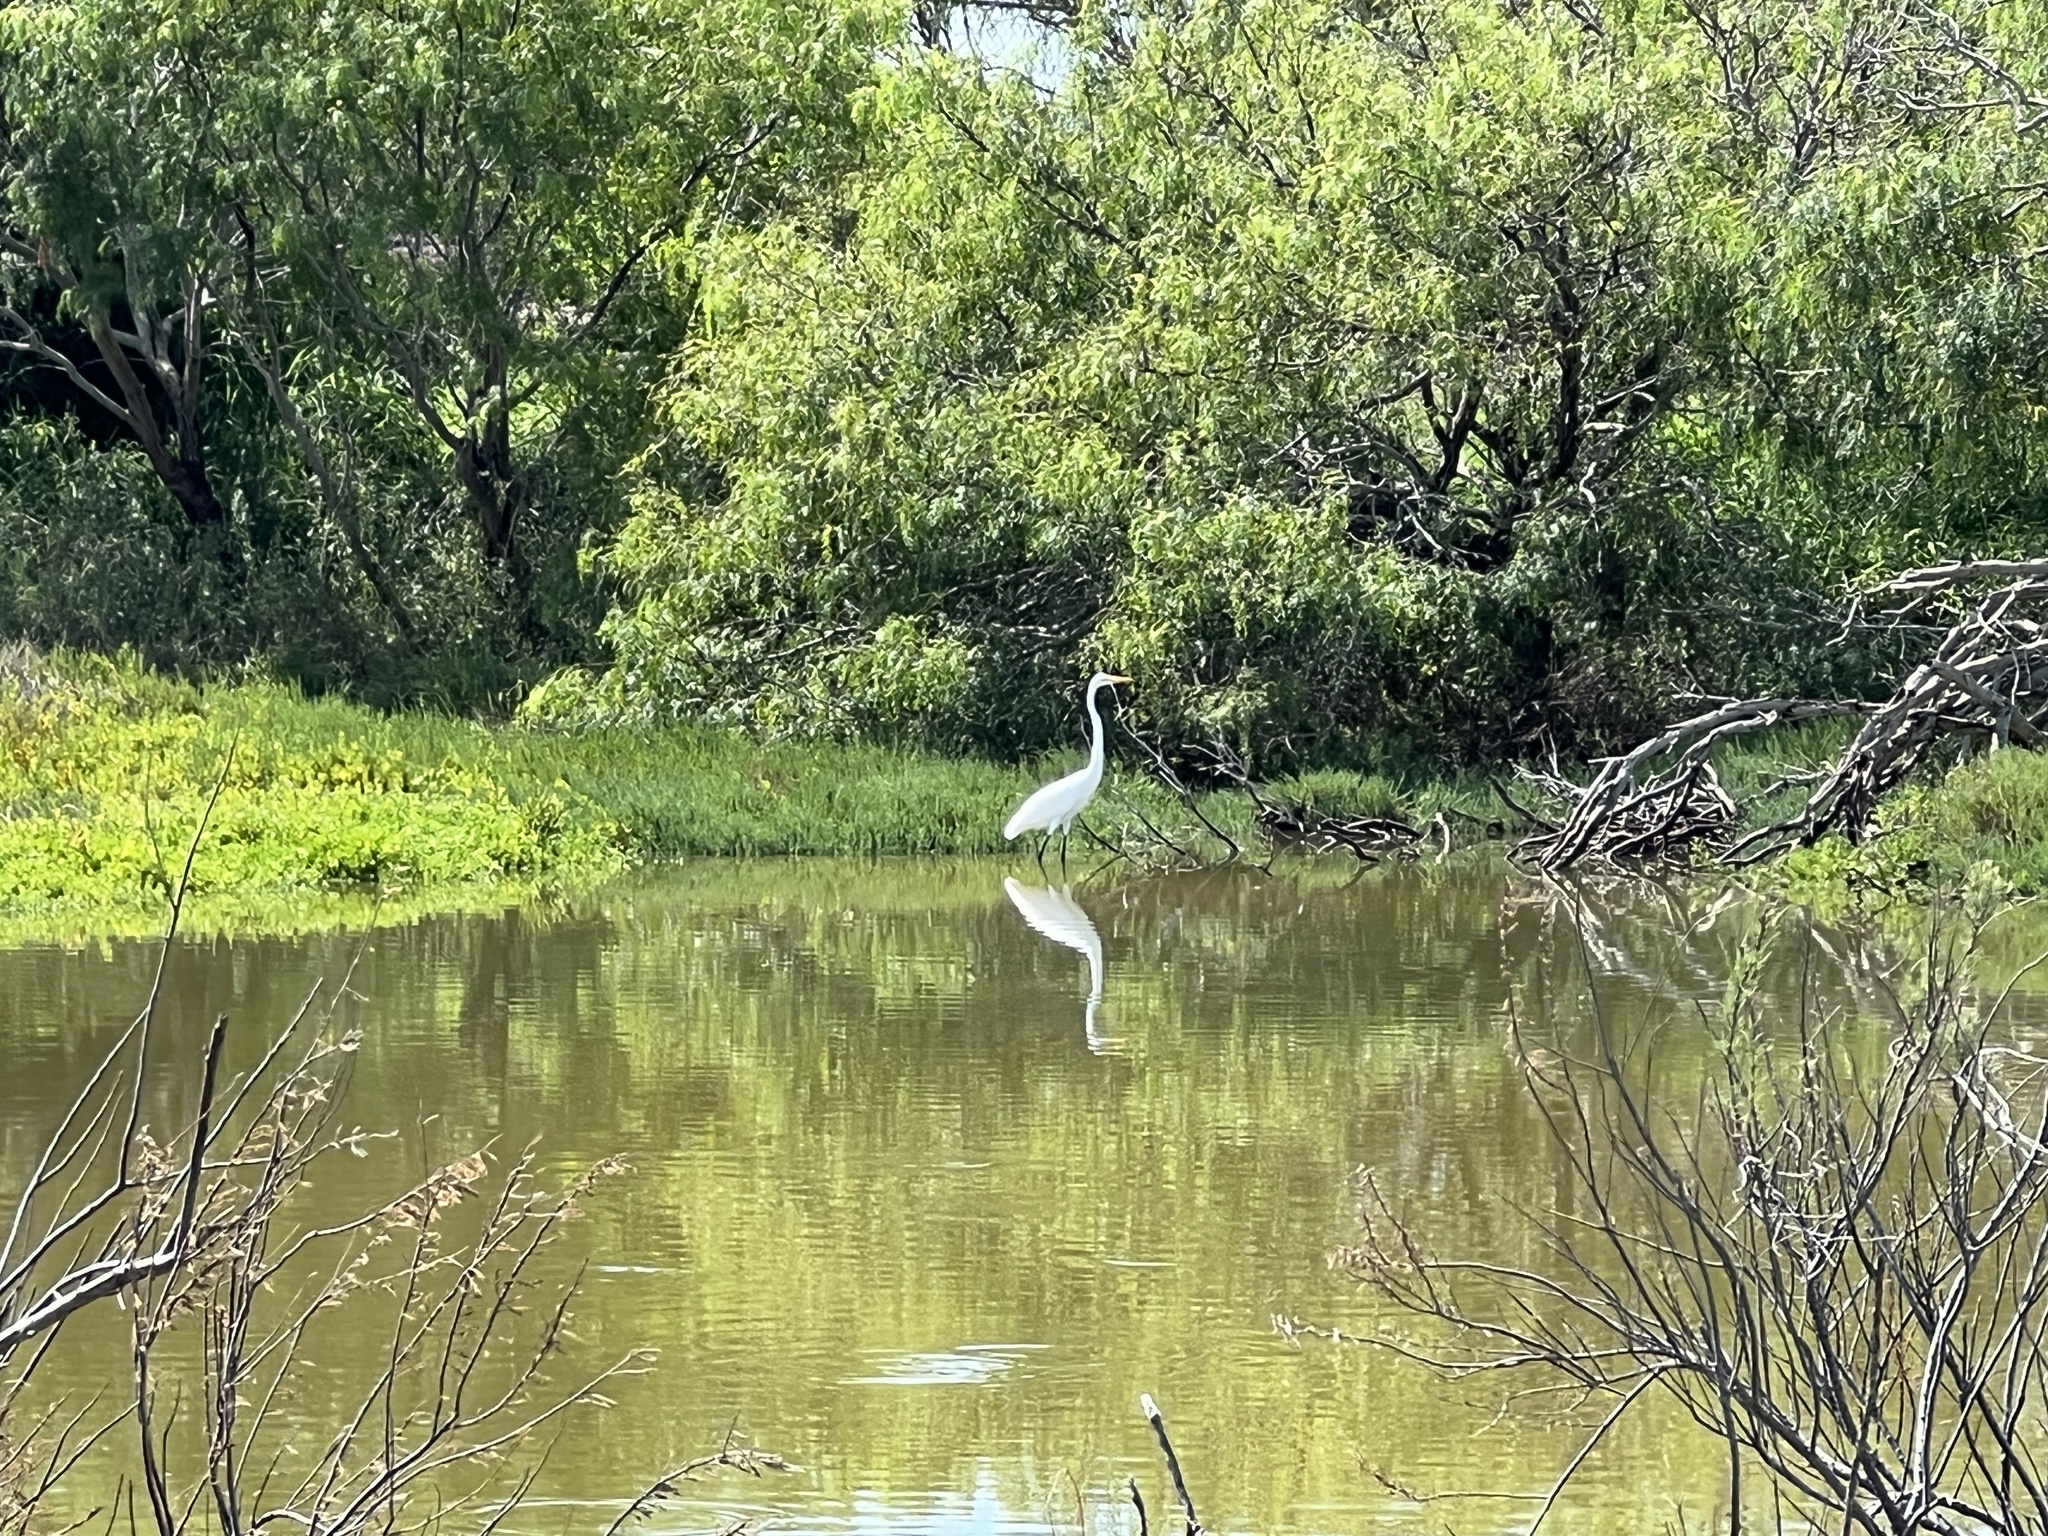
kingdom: Animalia
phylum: Chordata
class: Aves
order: Pelecaniformes
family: Ardeidae
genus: Ardea
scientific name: Ardea alba
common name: Great egret
